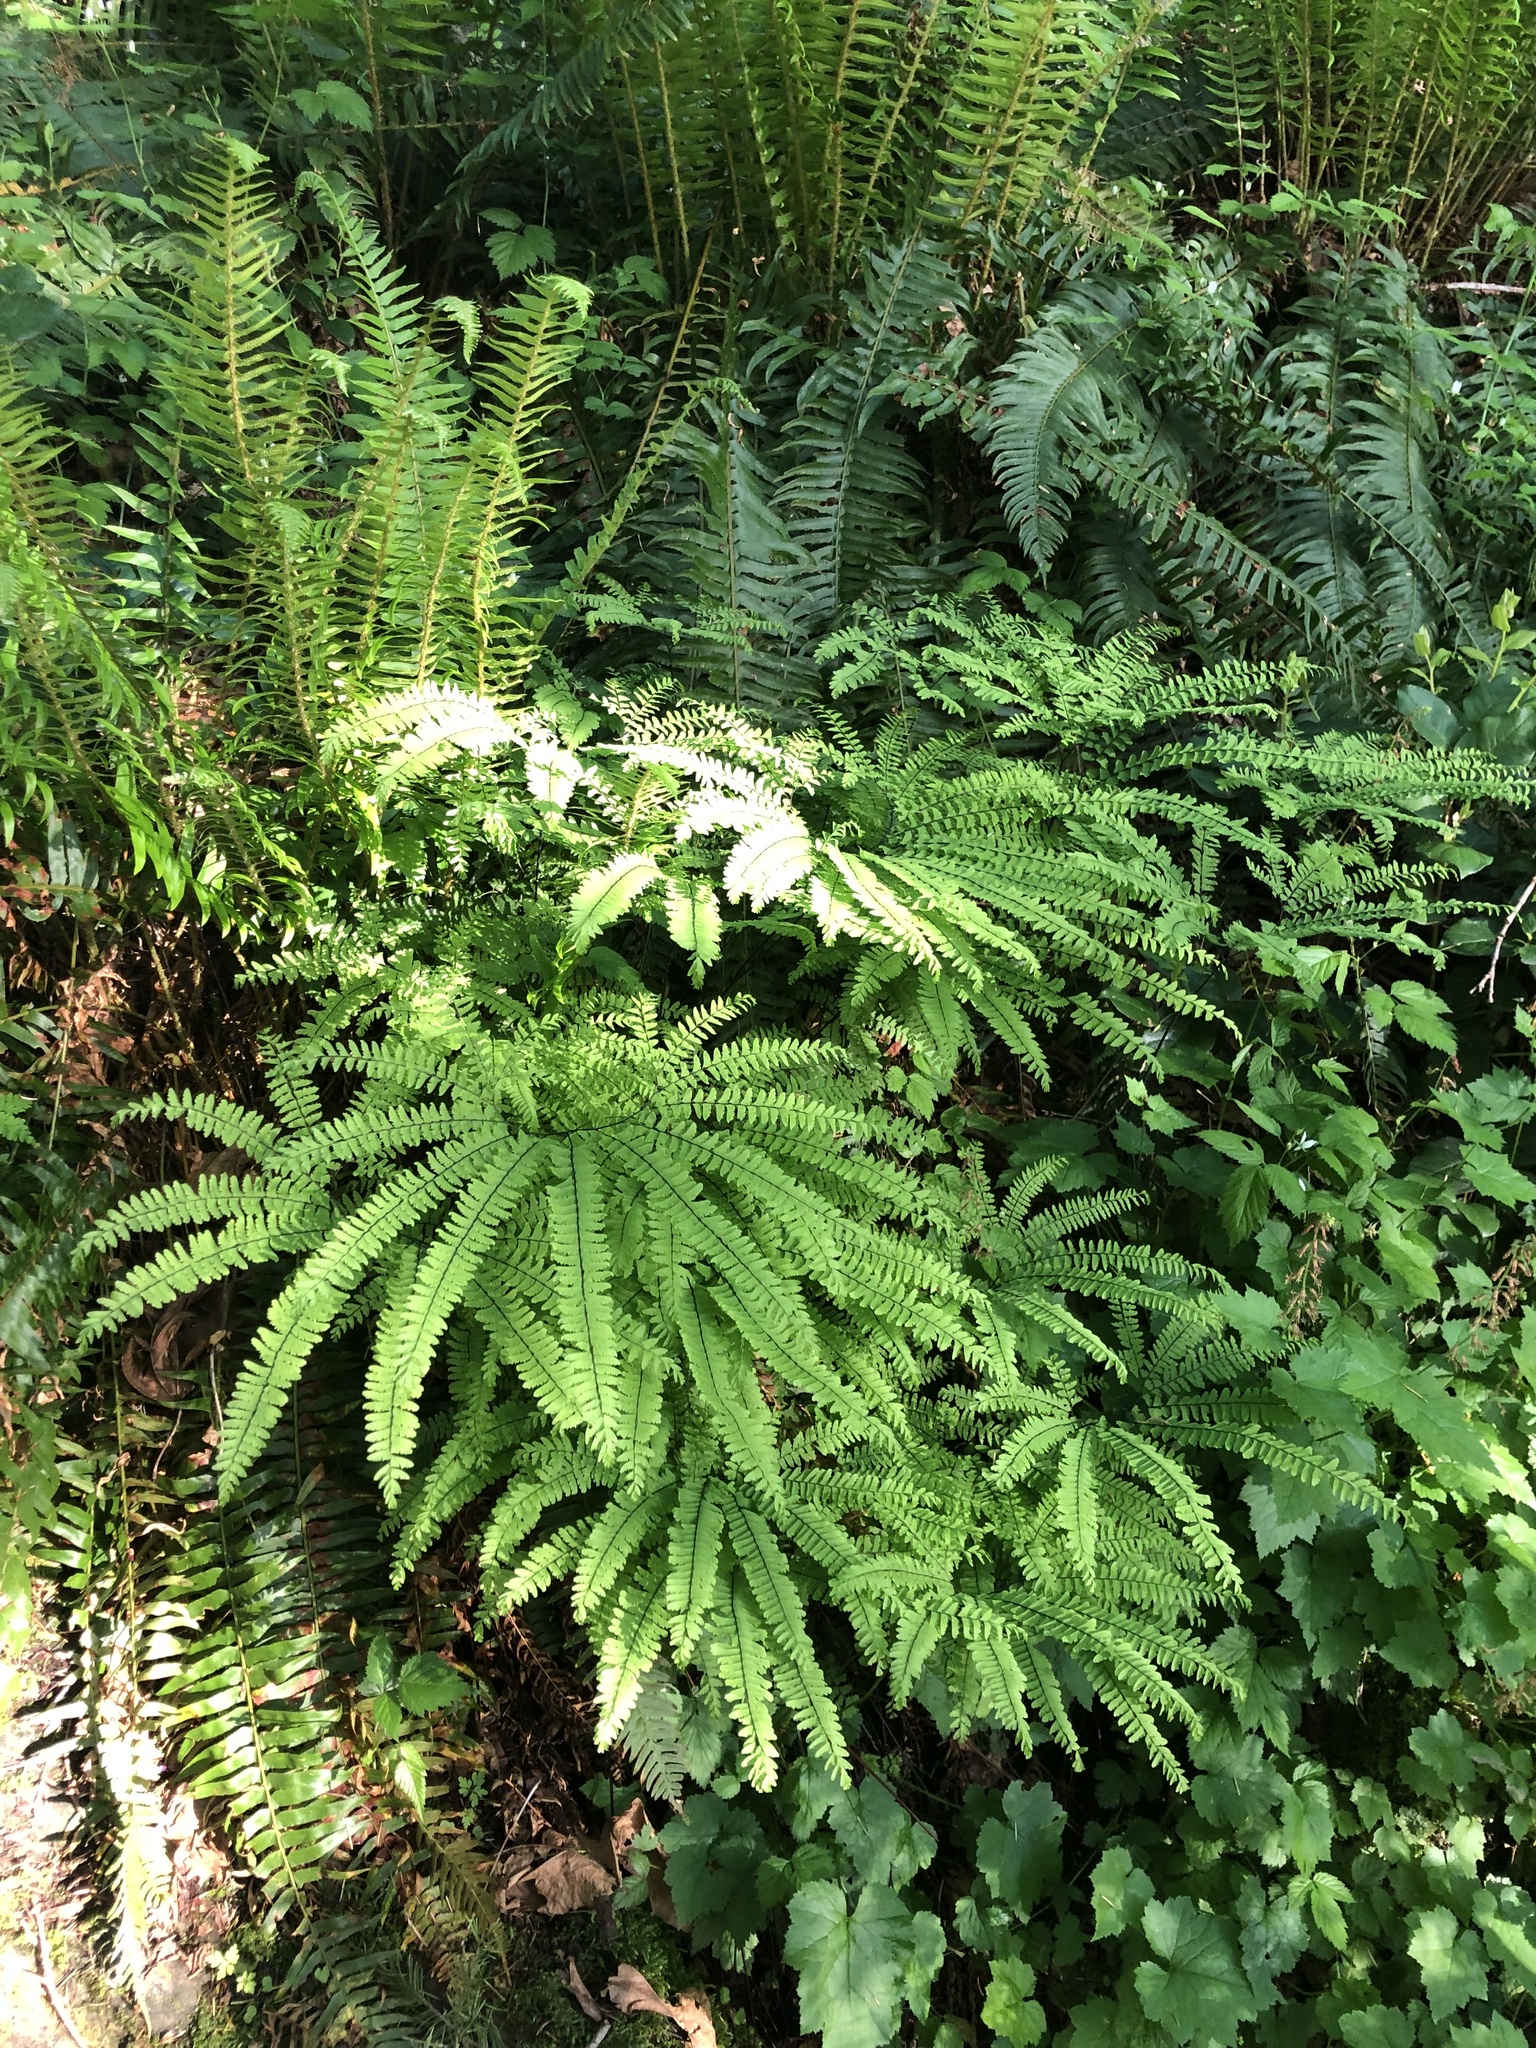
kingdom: Plantae
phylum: Tracheophyta
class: Polypodiopsida
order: Polypodiales
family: Pteridaceae
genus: Adiantum
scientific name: Adiantum aleuticum
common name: Aleutian maidenhair fern
